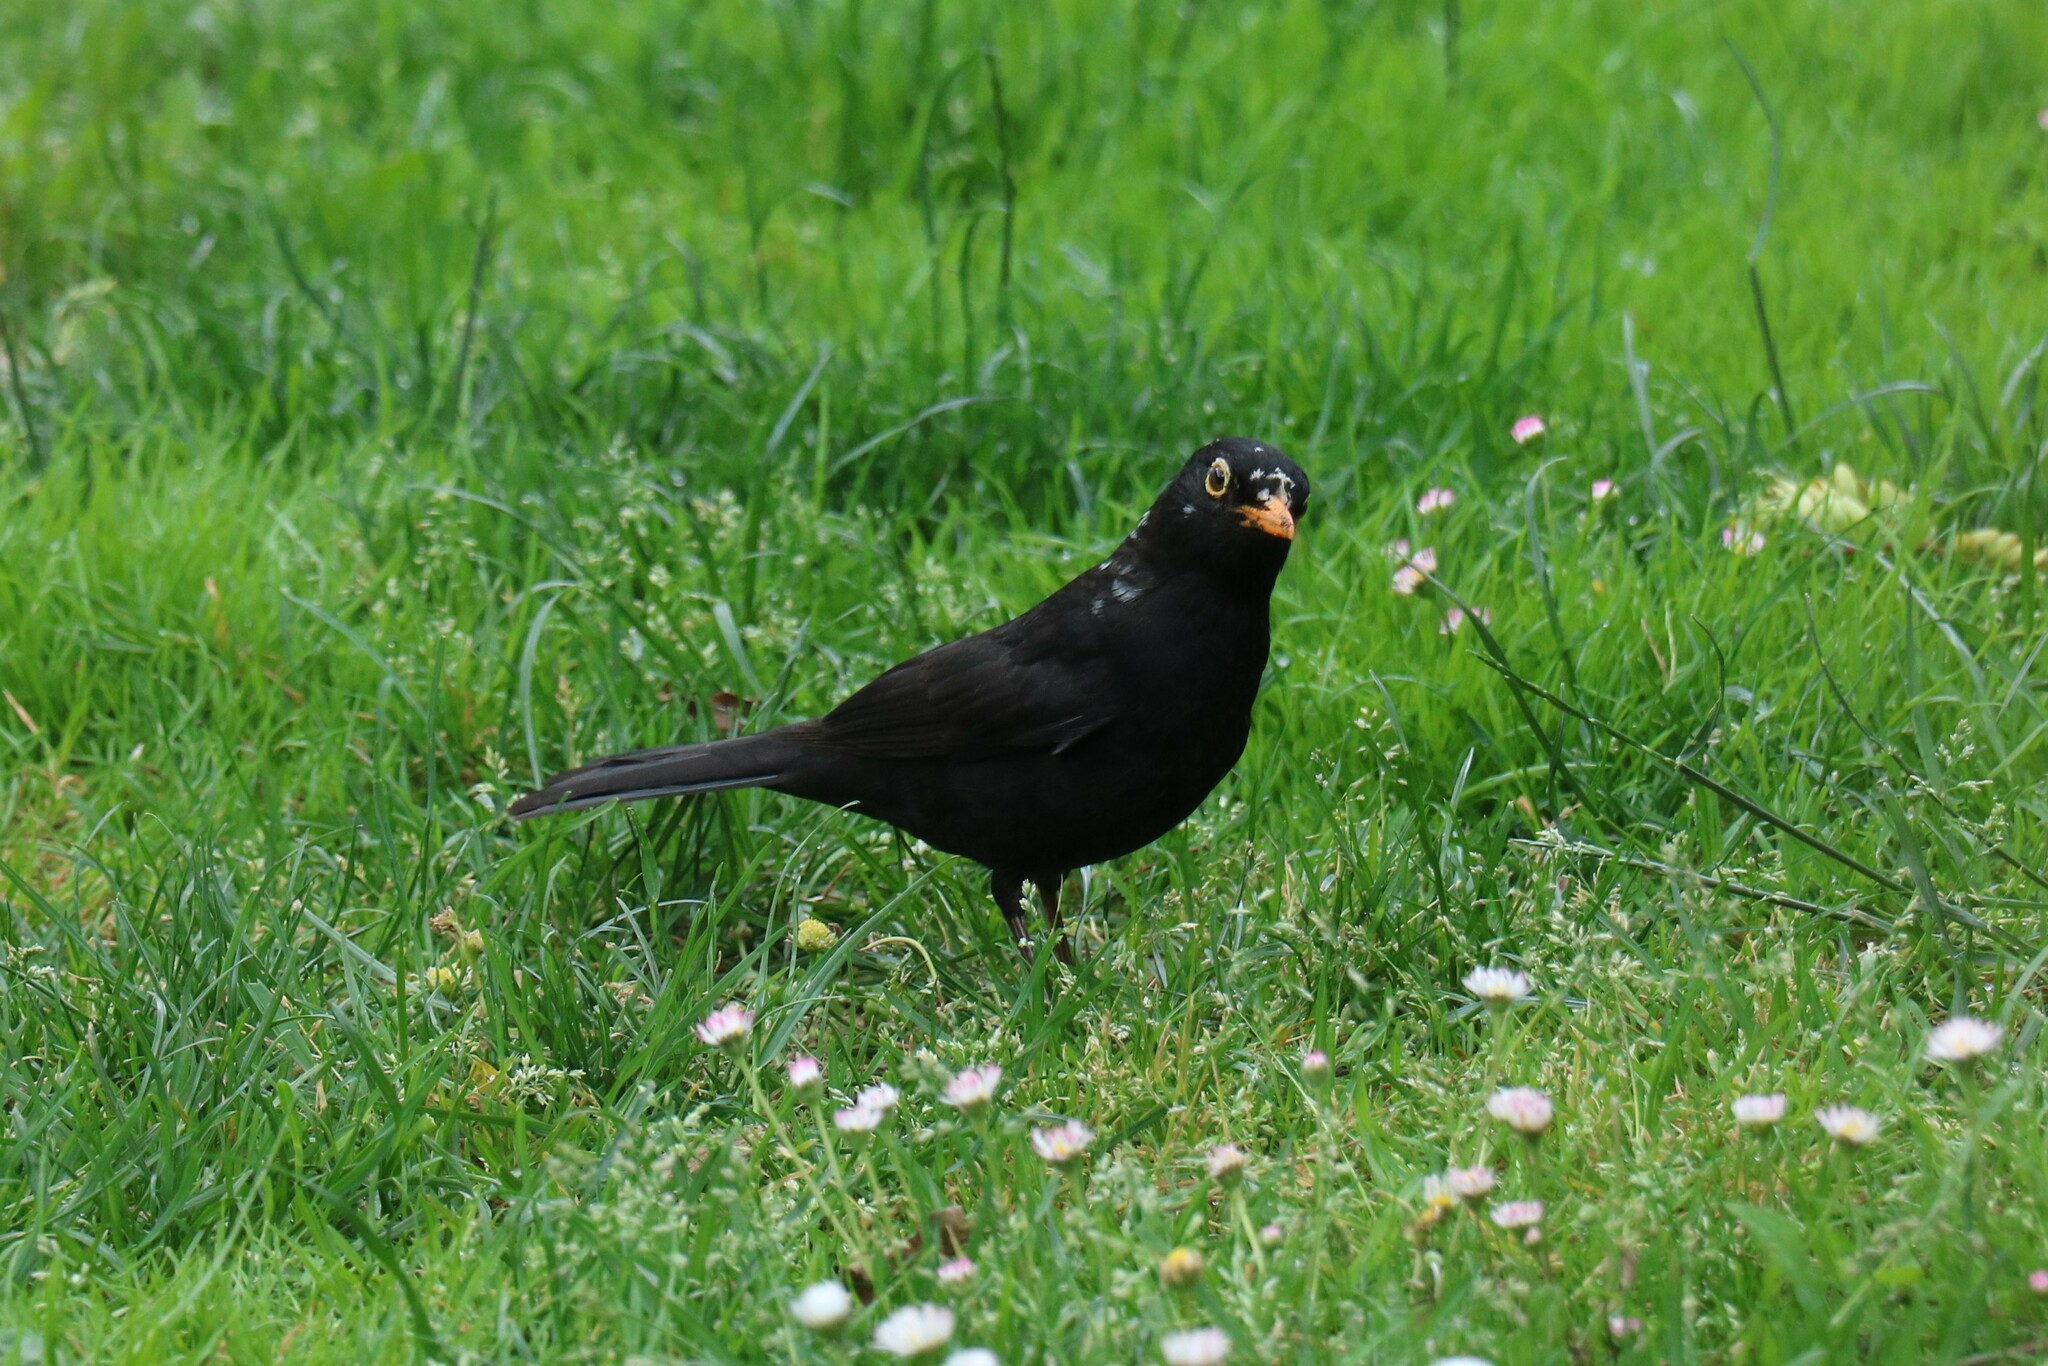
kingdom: Animalia
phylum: Chordata
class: Aves
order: Passeriformes
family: Turdidae
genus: Turdus
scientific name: Turdus merula
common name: Common blackbird
